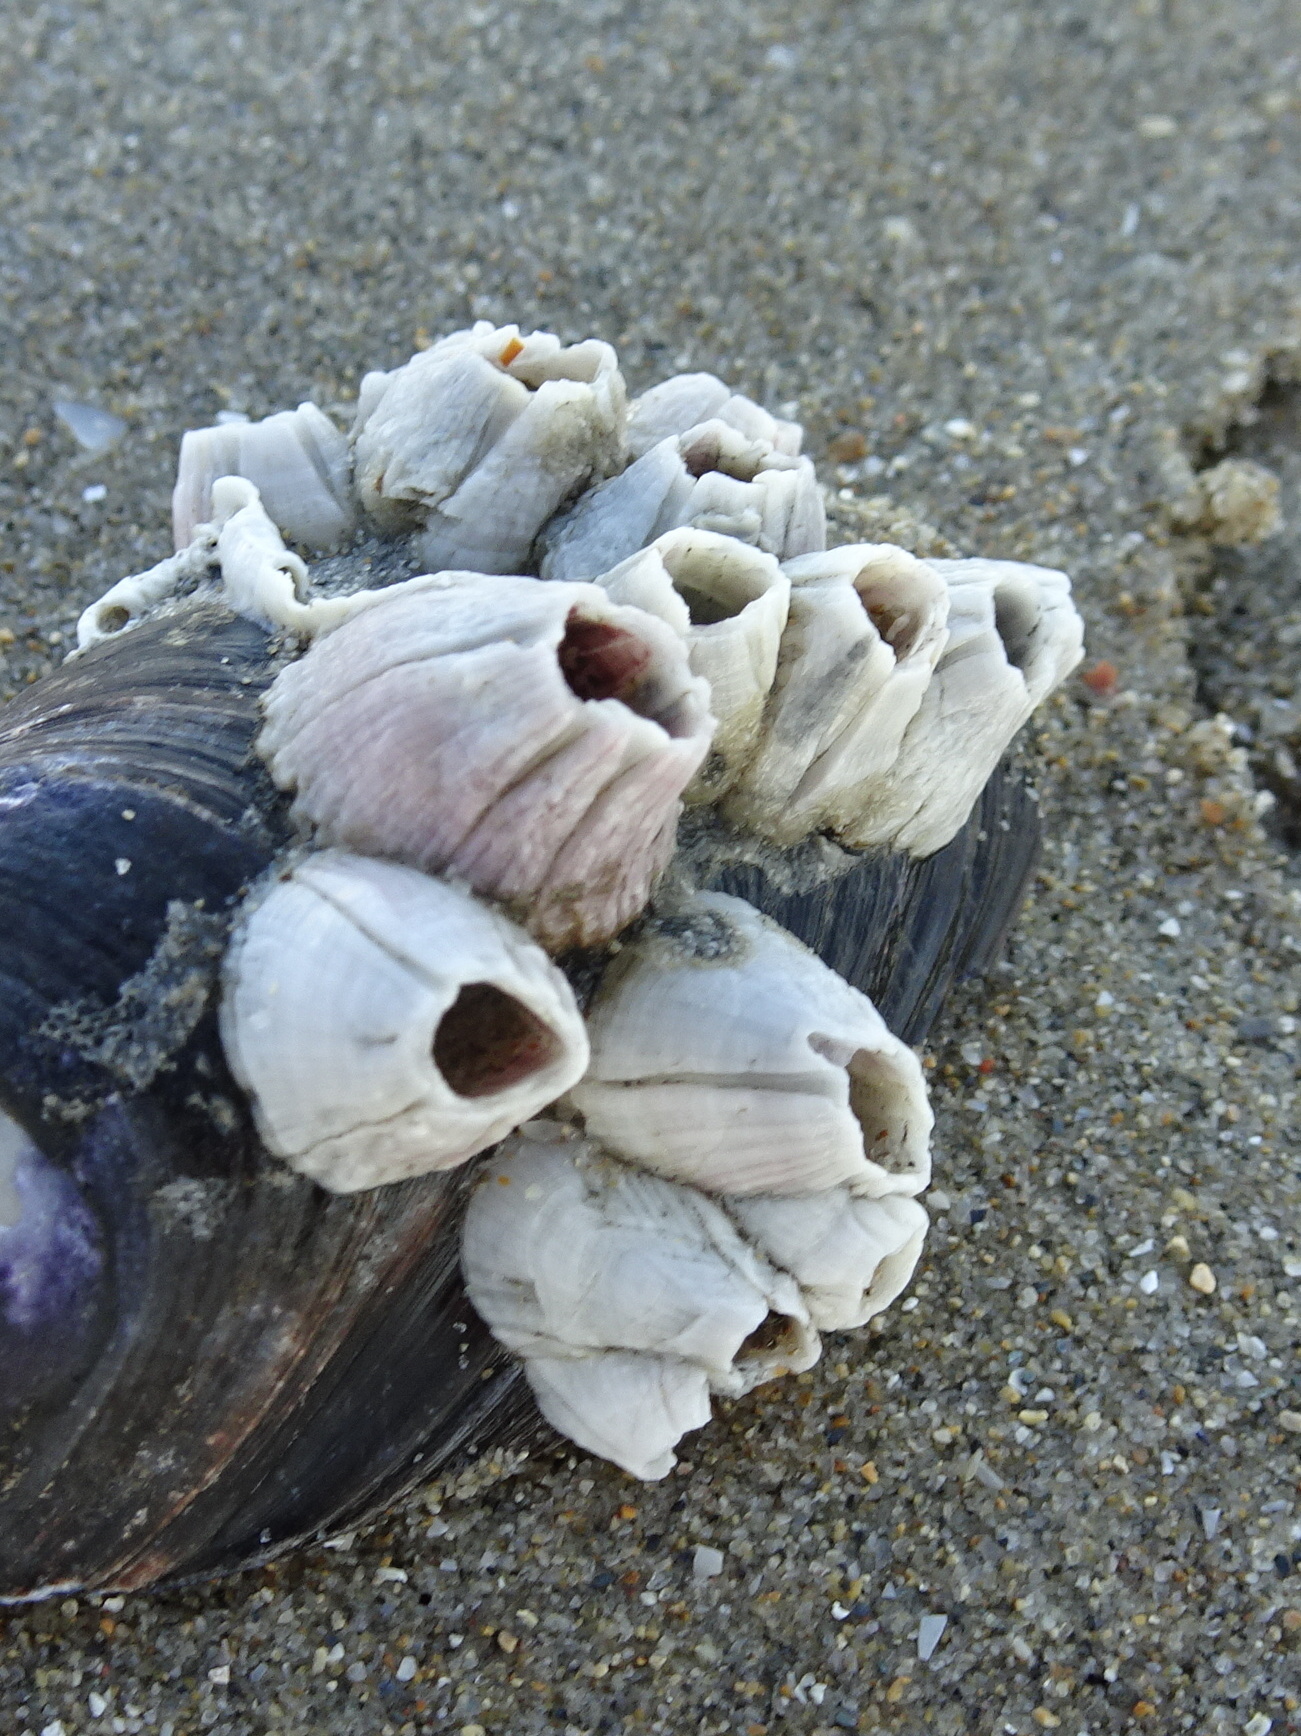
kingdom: Animalia
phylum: Arthropoda
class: Maxillopoda
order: Sessilia
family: Balanidae
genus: Perforatus
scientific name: Perforatus perforatus
